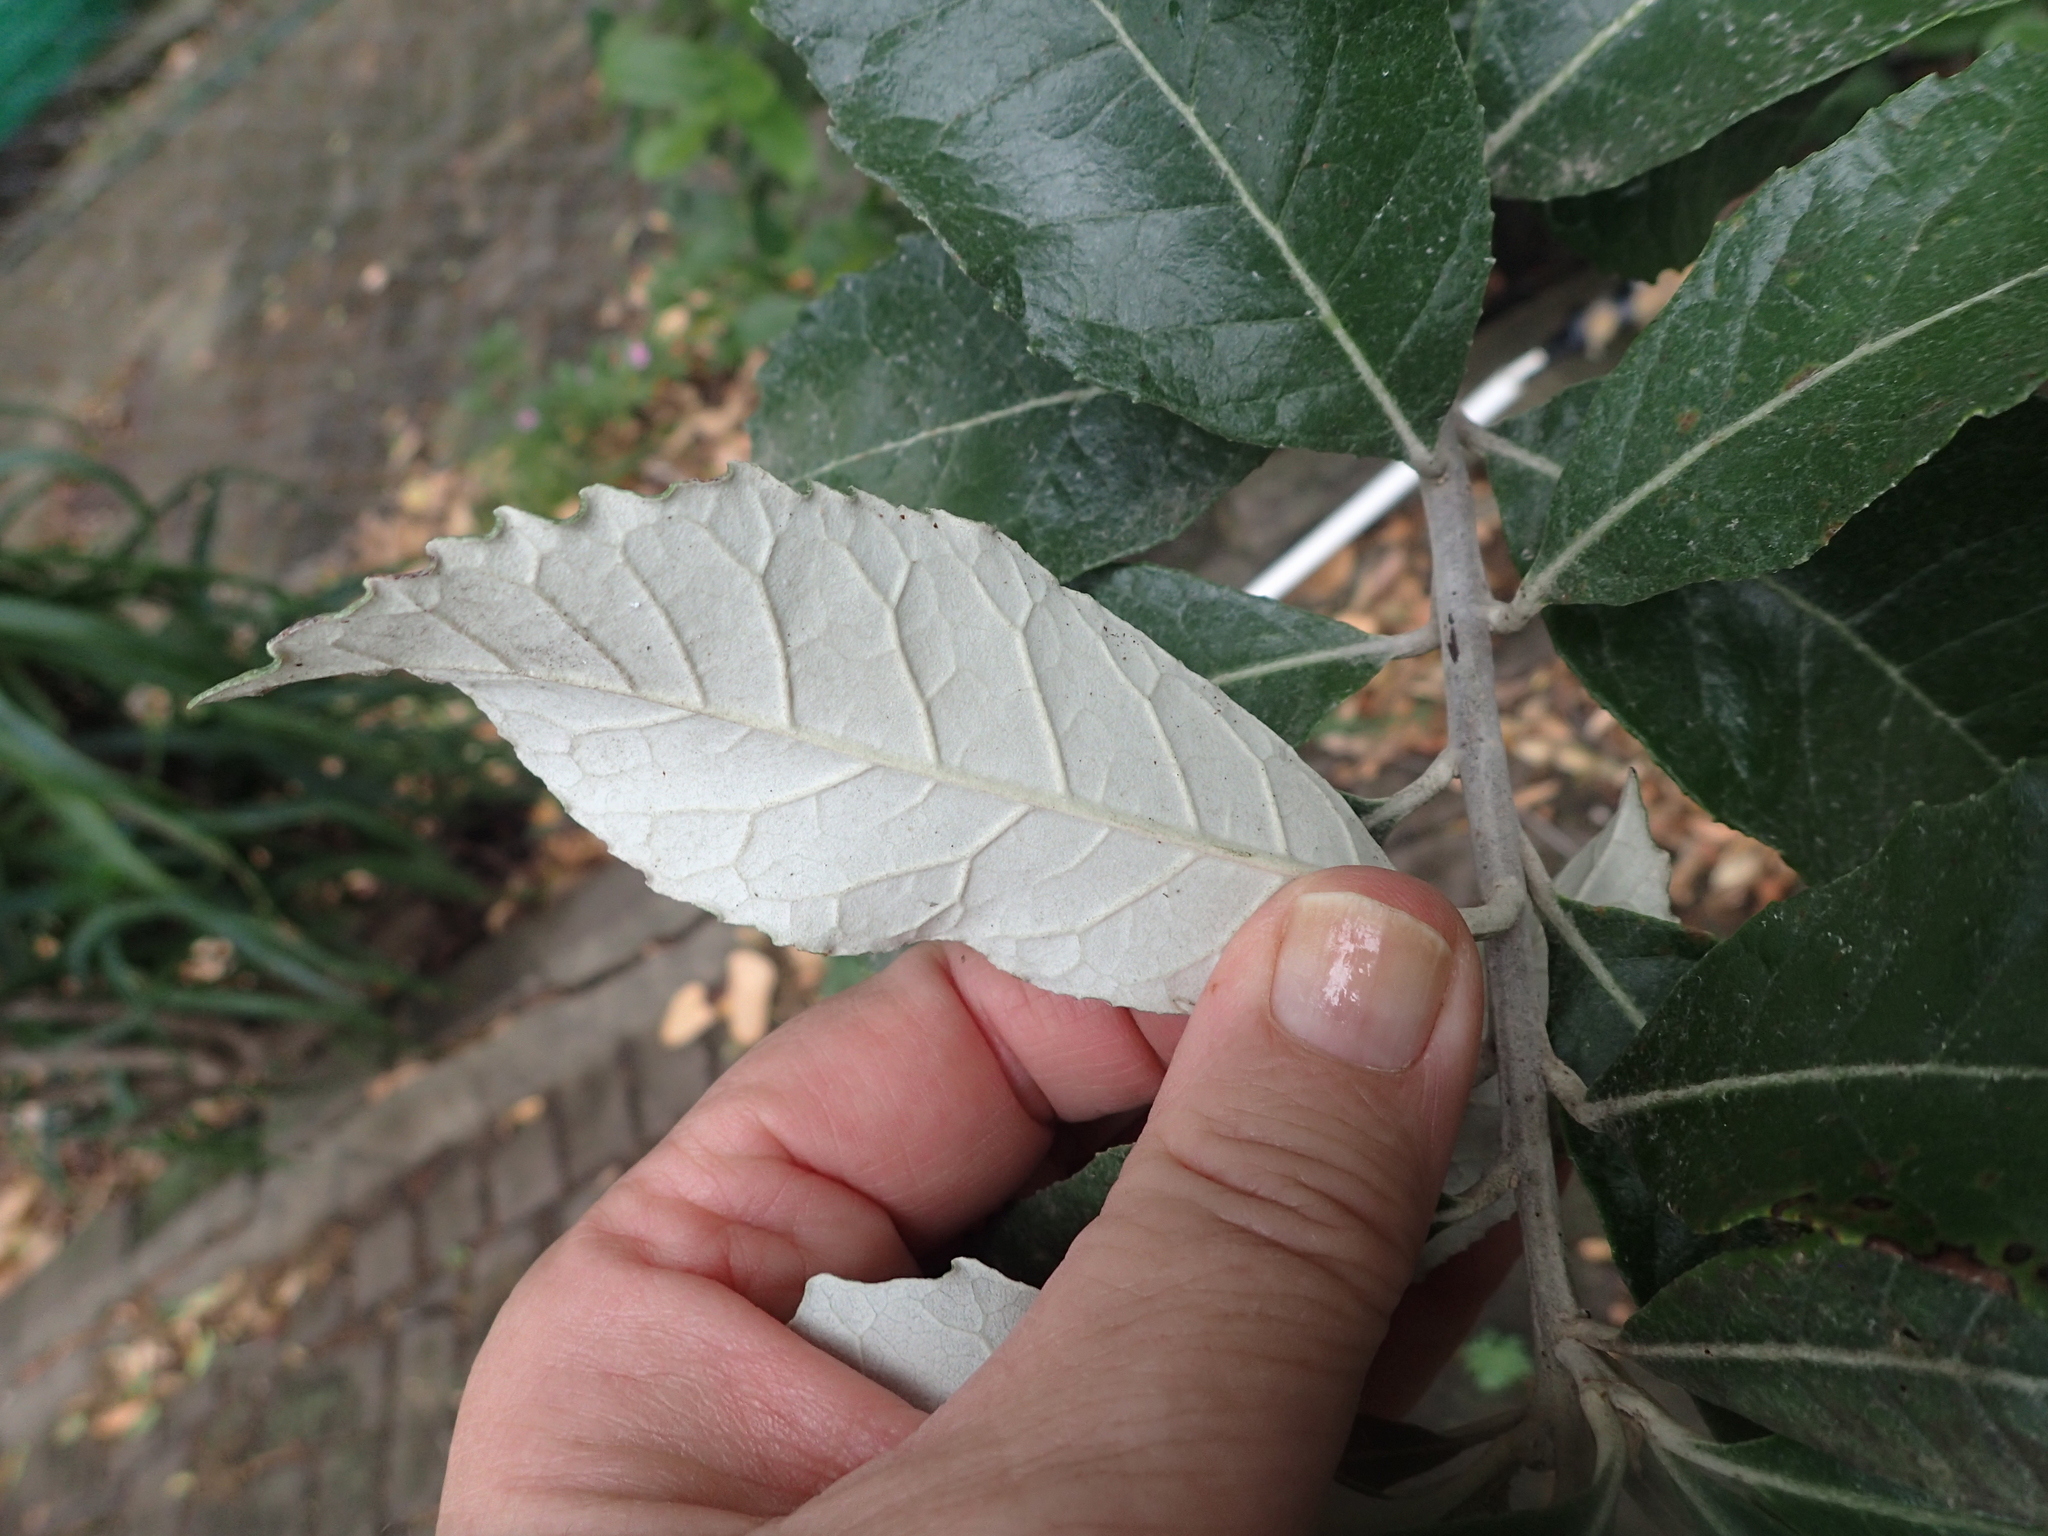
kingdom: Plantae
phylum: Tracheophyta
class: Magnoliopsida
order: Asterales
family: Asteraceae
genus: Tarchonanthus
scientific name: Tarchonanthus littoralis
